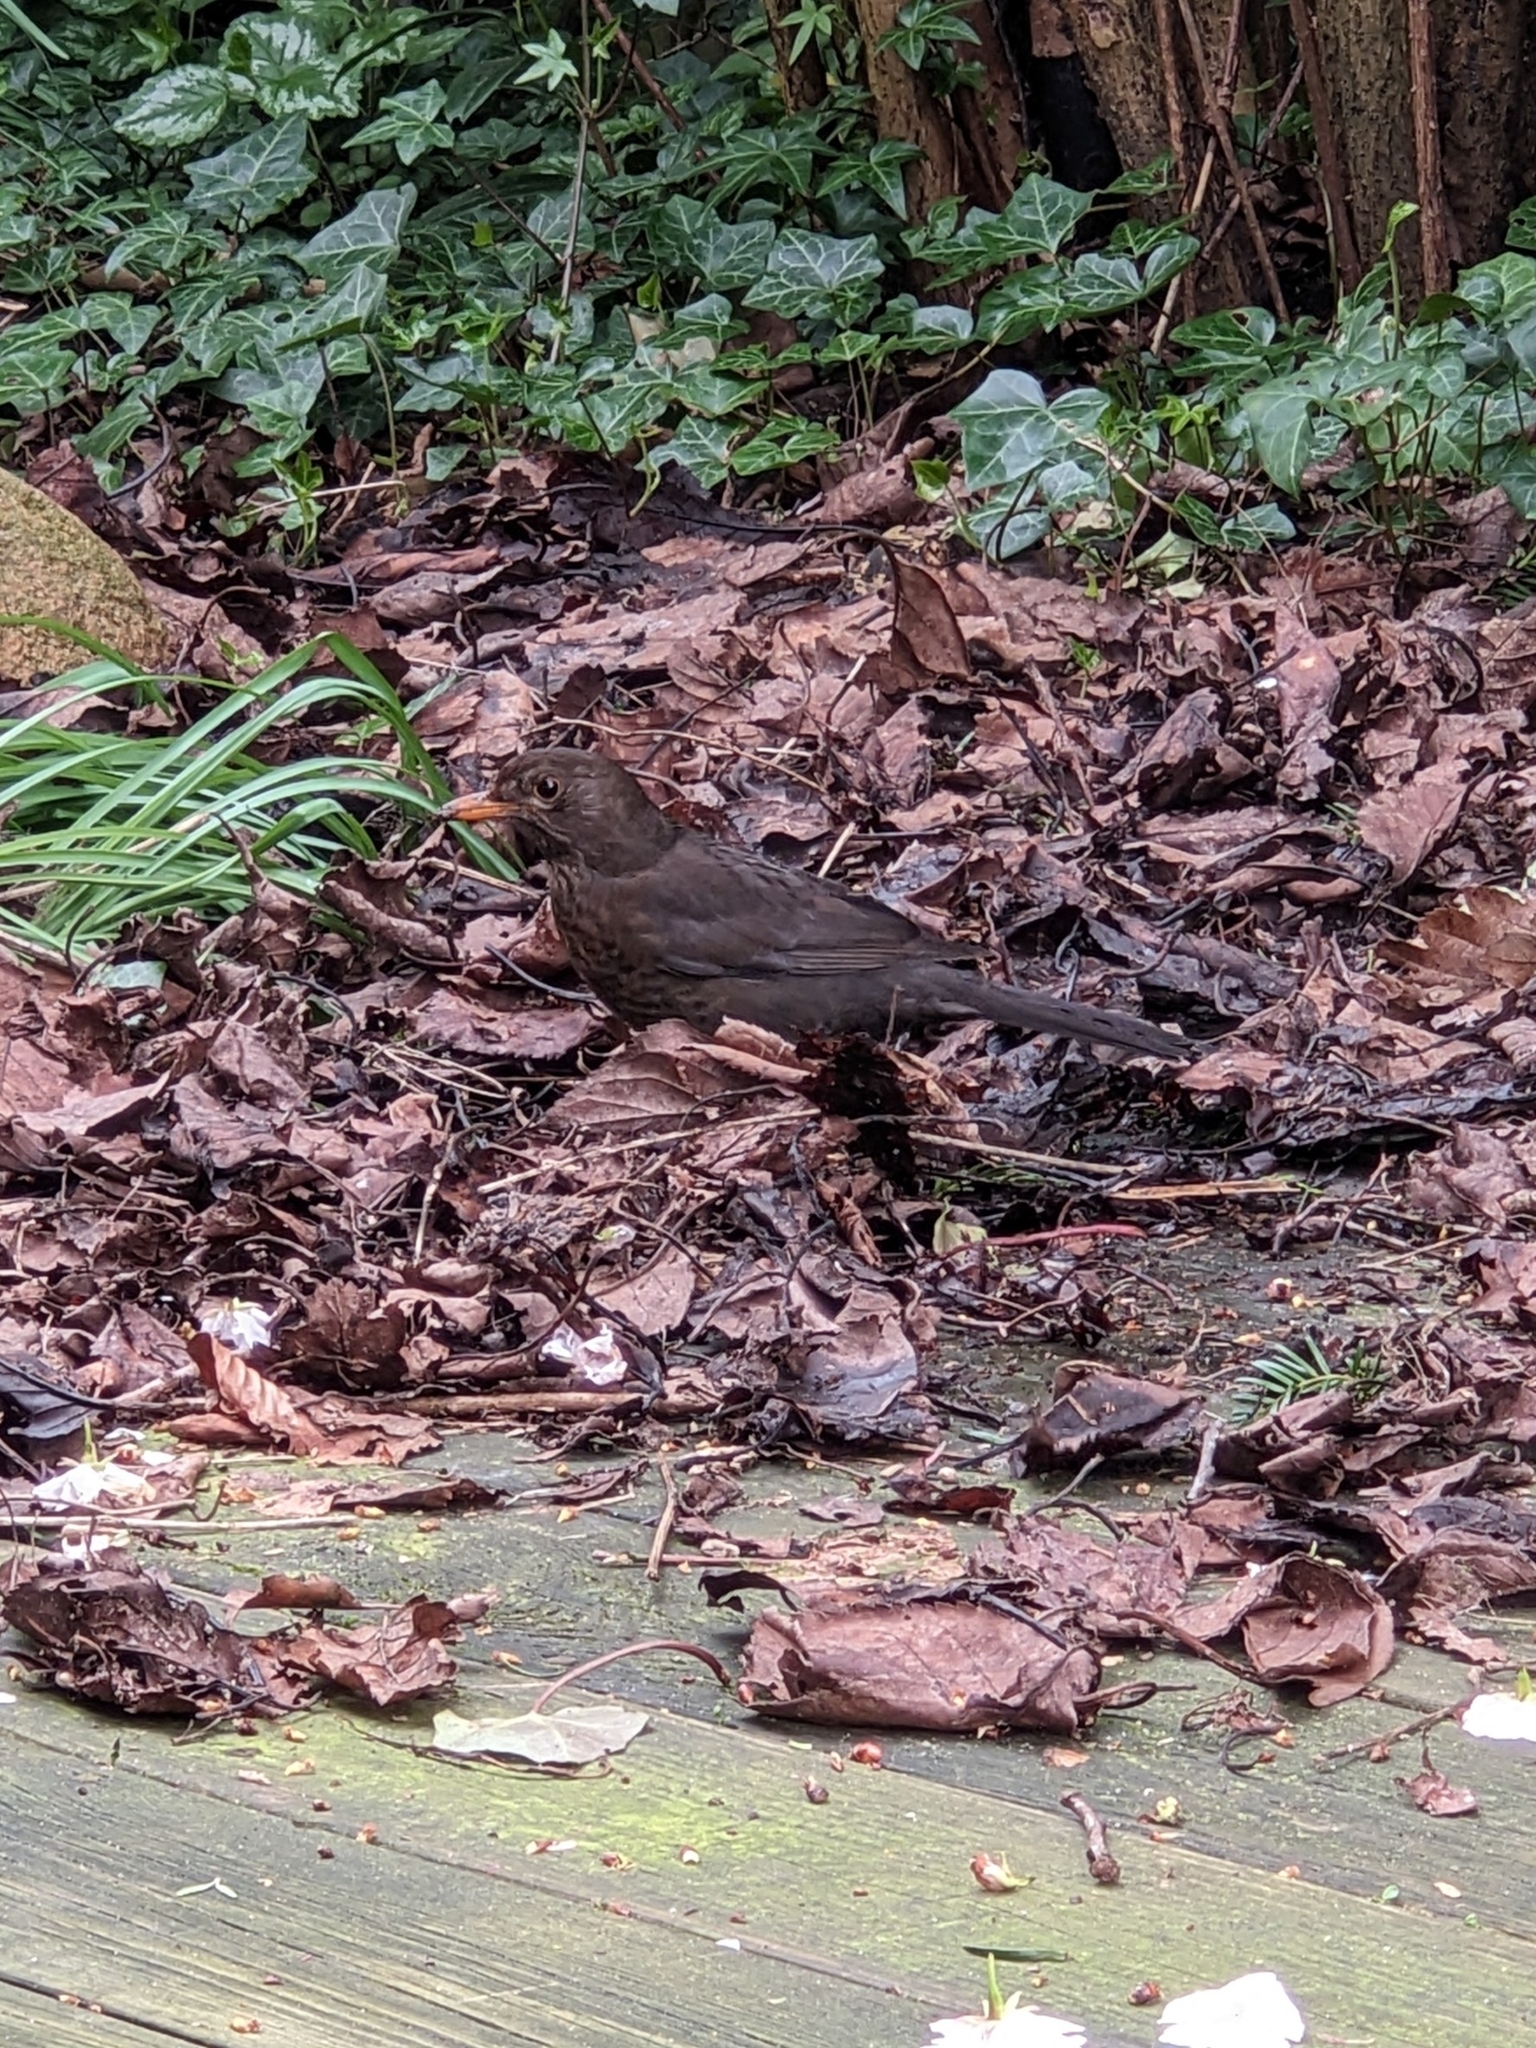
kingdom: Animalia
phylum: Chordata
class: Aves
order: Passeriformes
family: Turdidae
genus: Turdus
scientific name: Turdus merula
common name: Common blackbird
